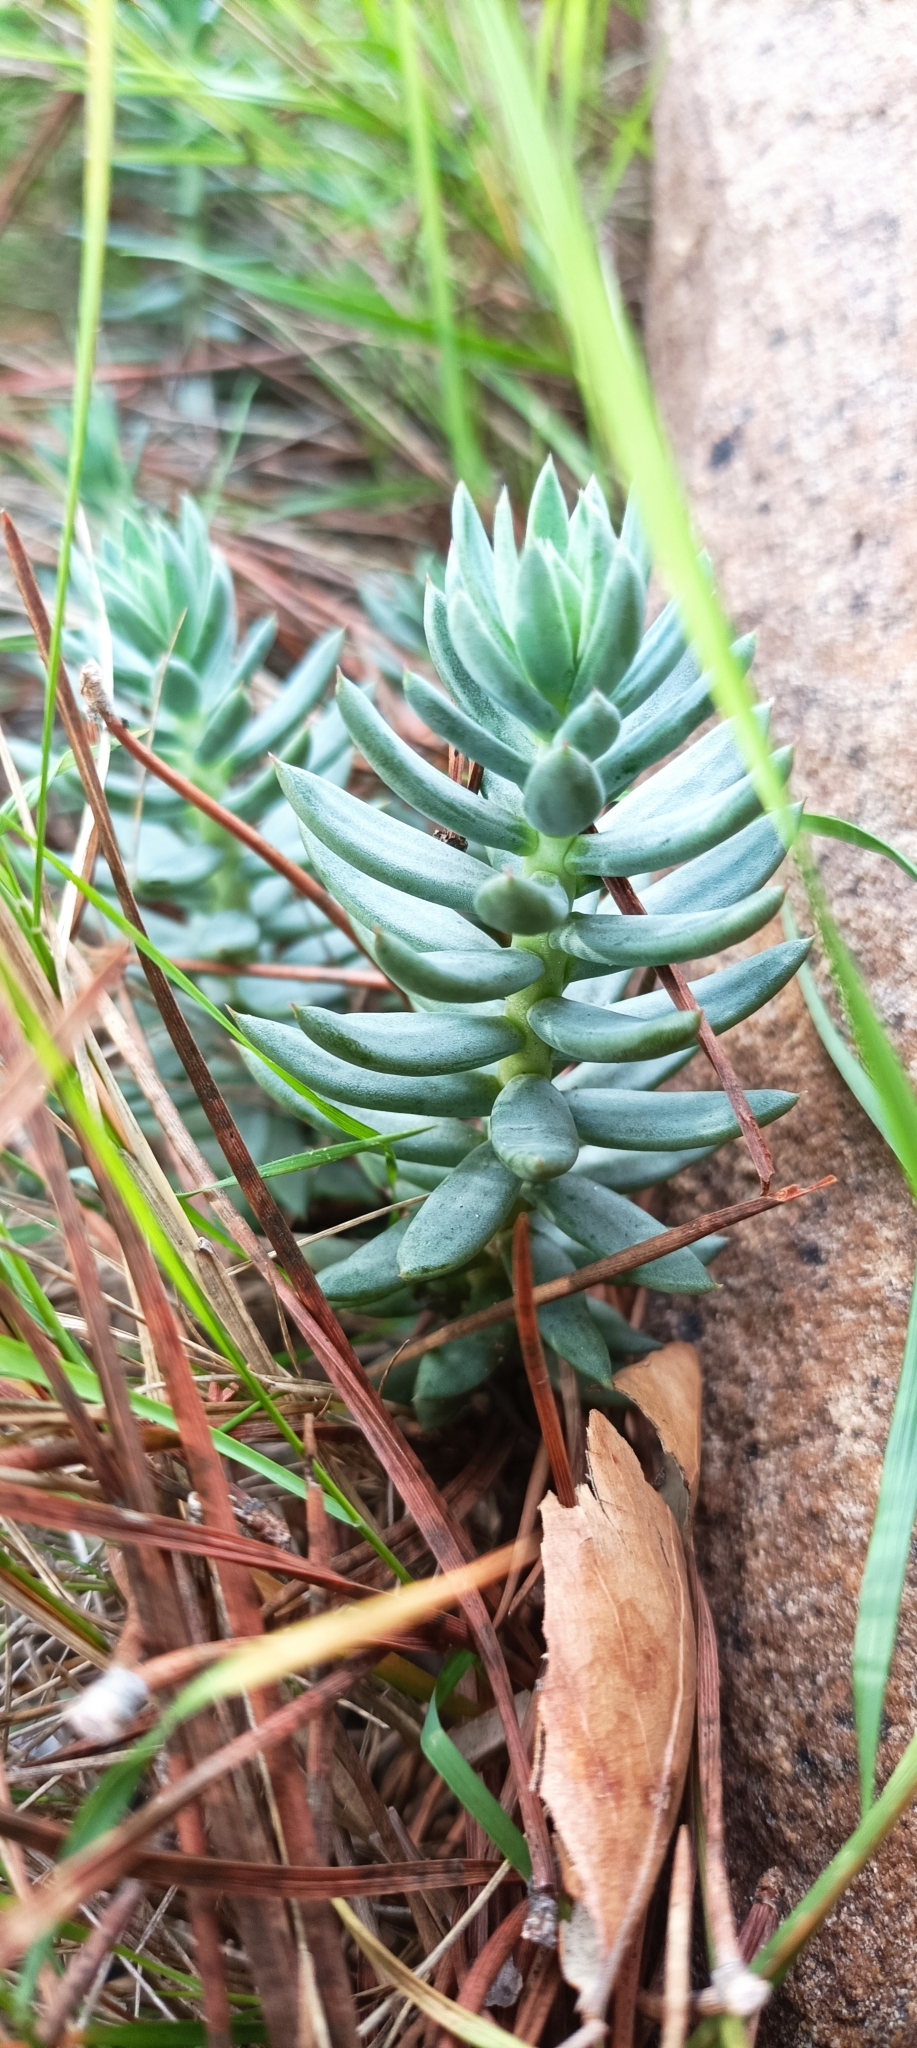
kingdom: Plantae
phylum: Tracheophyta
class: Magnoliopsida
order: Saxifragales
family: Crassulaceae
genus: Petrosedum
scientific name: Petrosedum sediforme
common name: Pale stonecrop
